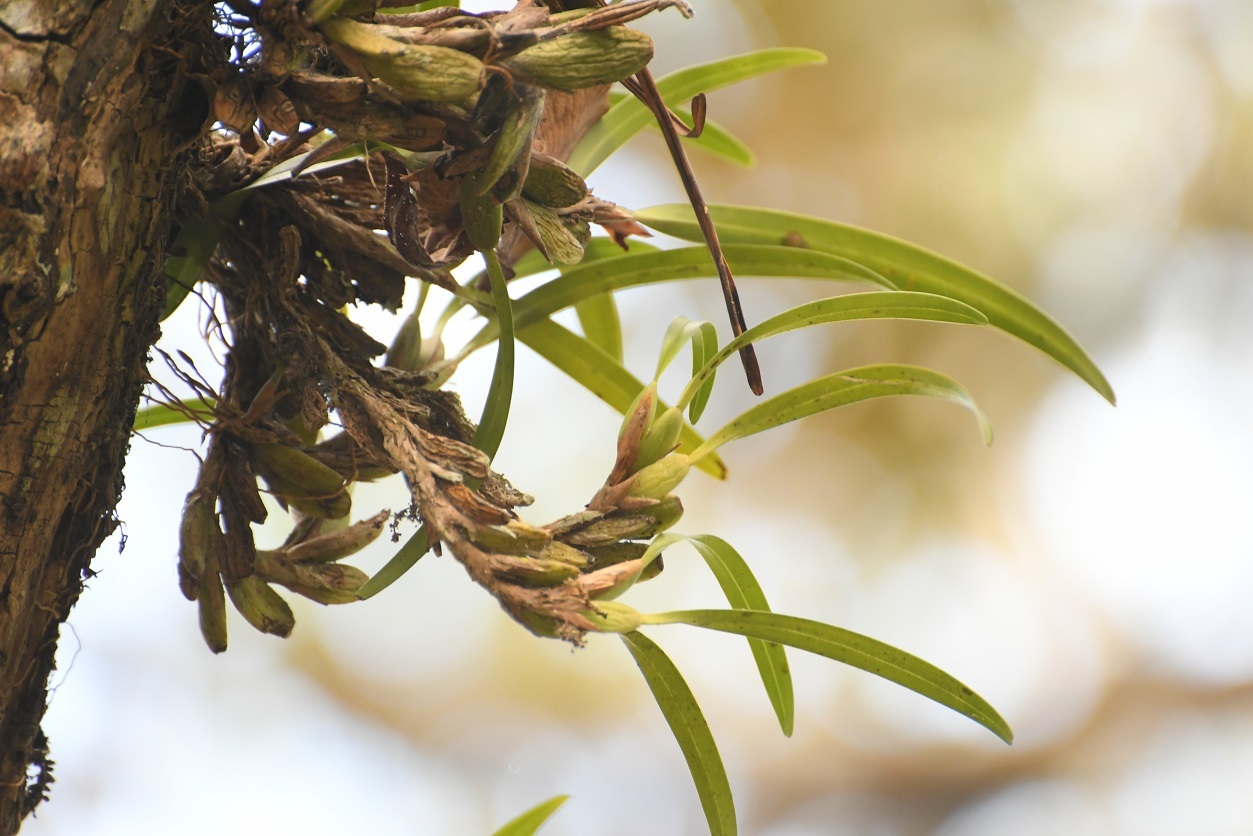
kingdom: Plantae
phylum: Tracheophyta
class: Liliopsida
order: Asparagales
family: Orchidaceae
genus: Maxillaria
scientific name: Maxillaria hagsateriana
